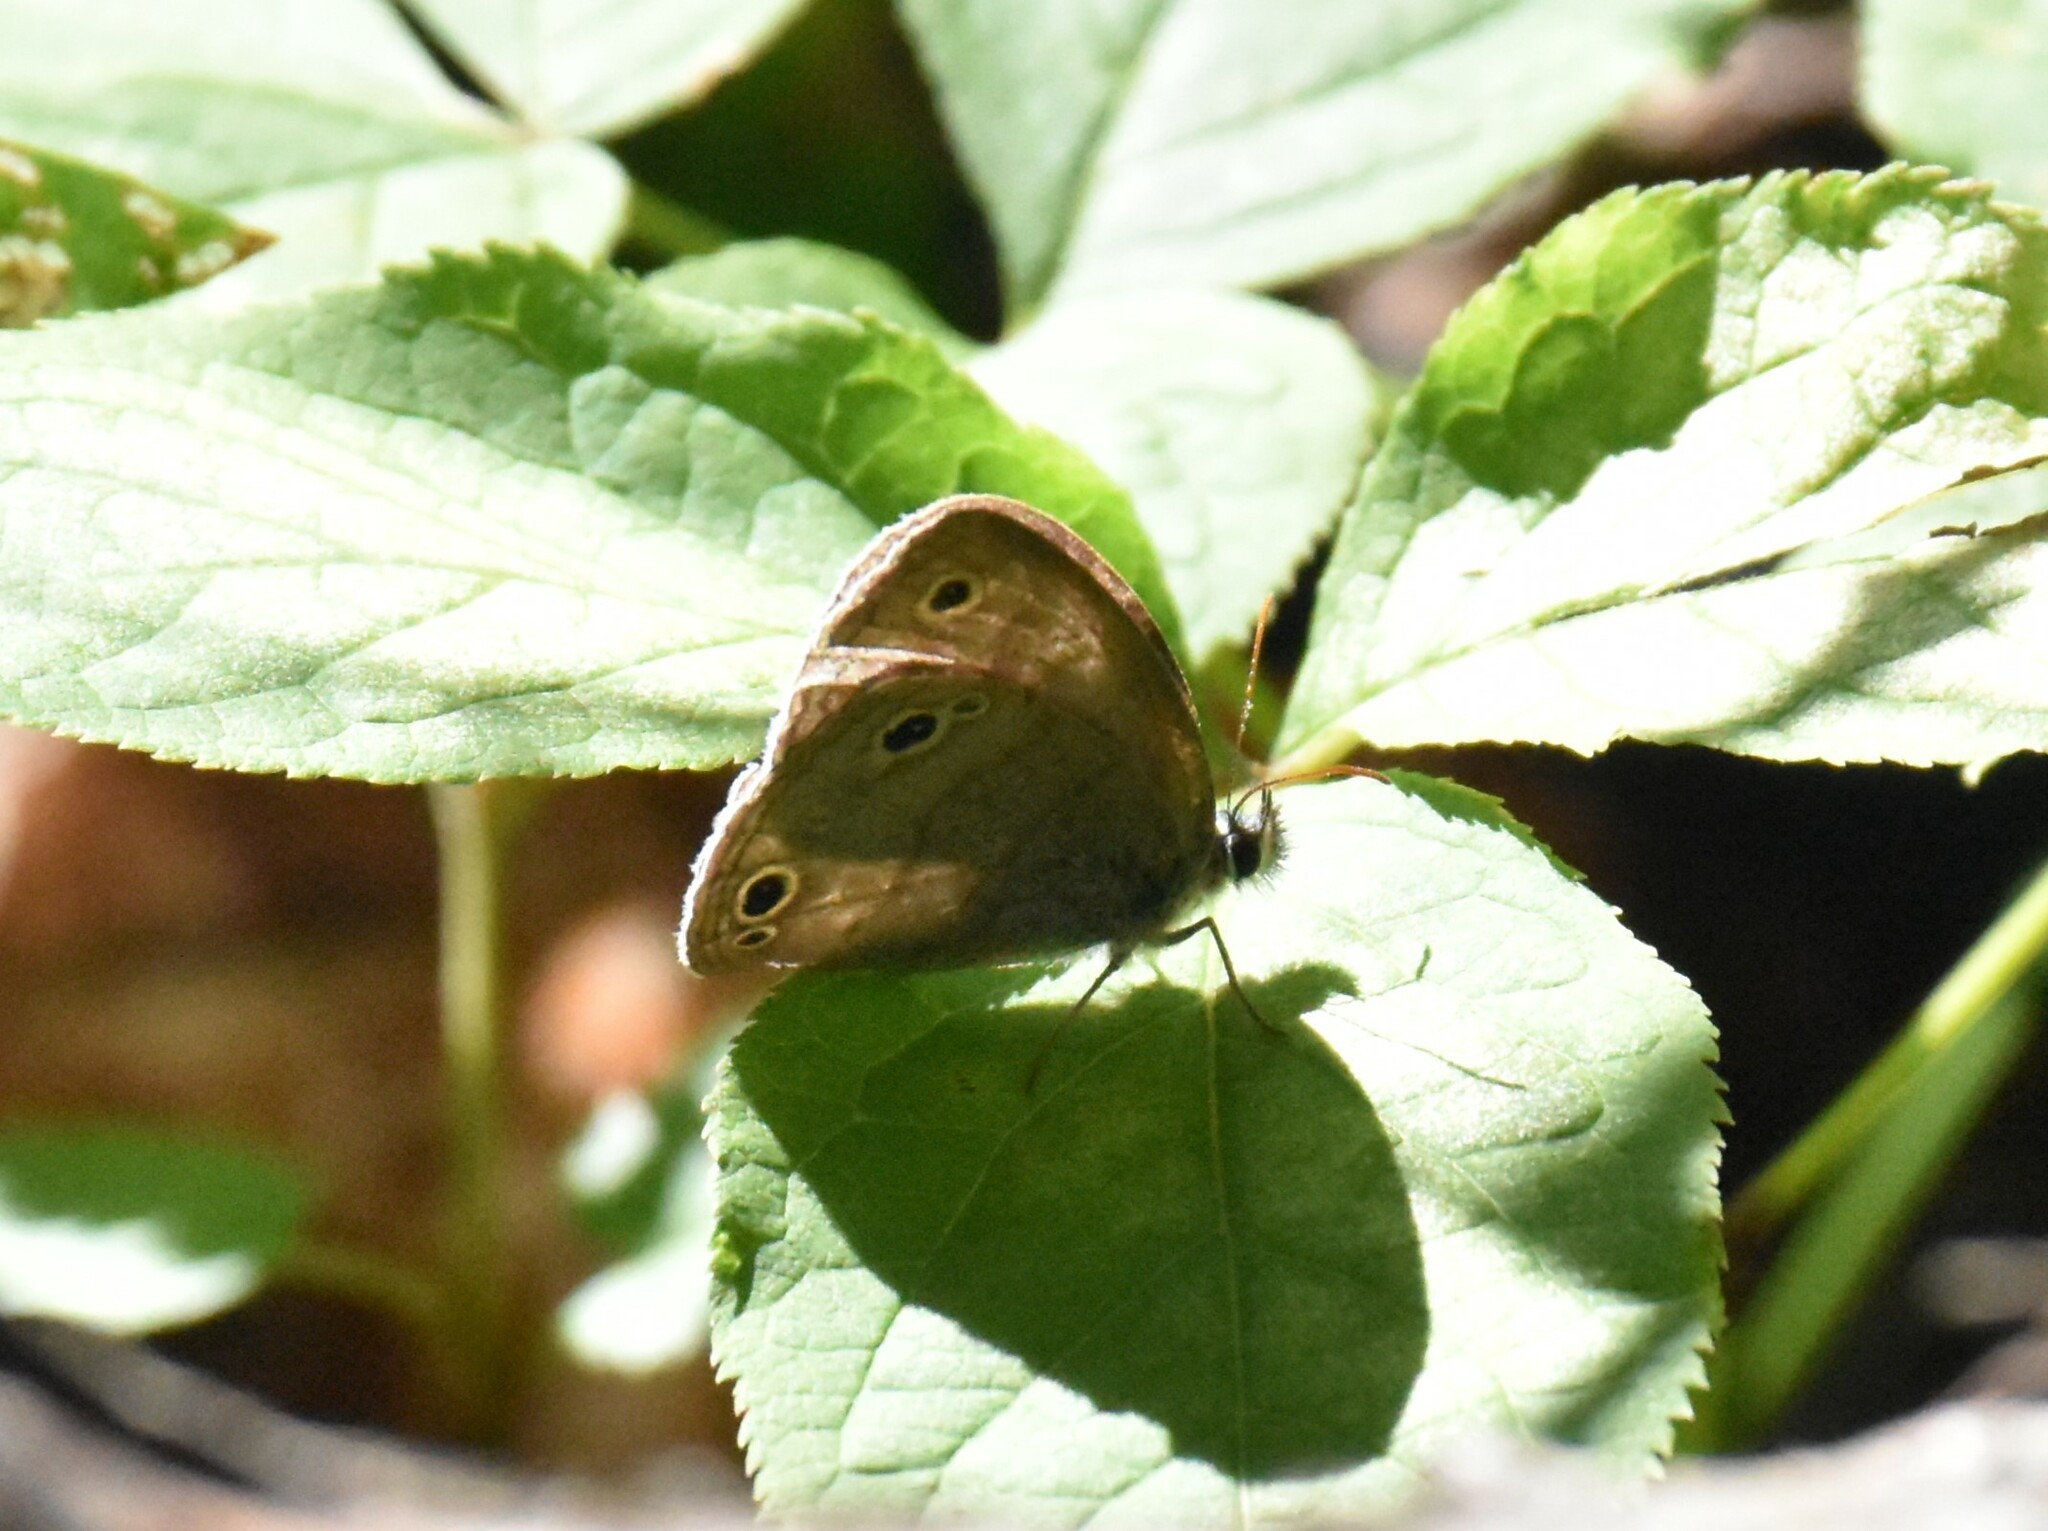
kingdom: Animalia
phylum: Arthropoda
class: Insecta
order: Lepidoptera
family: Nymphalidae
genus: Euptychia
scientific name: Euptychia cymela
